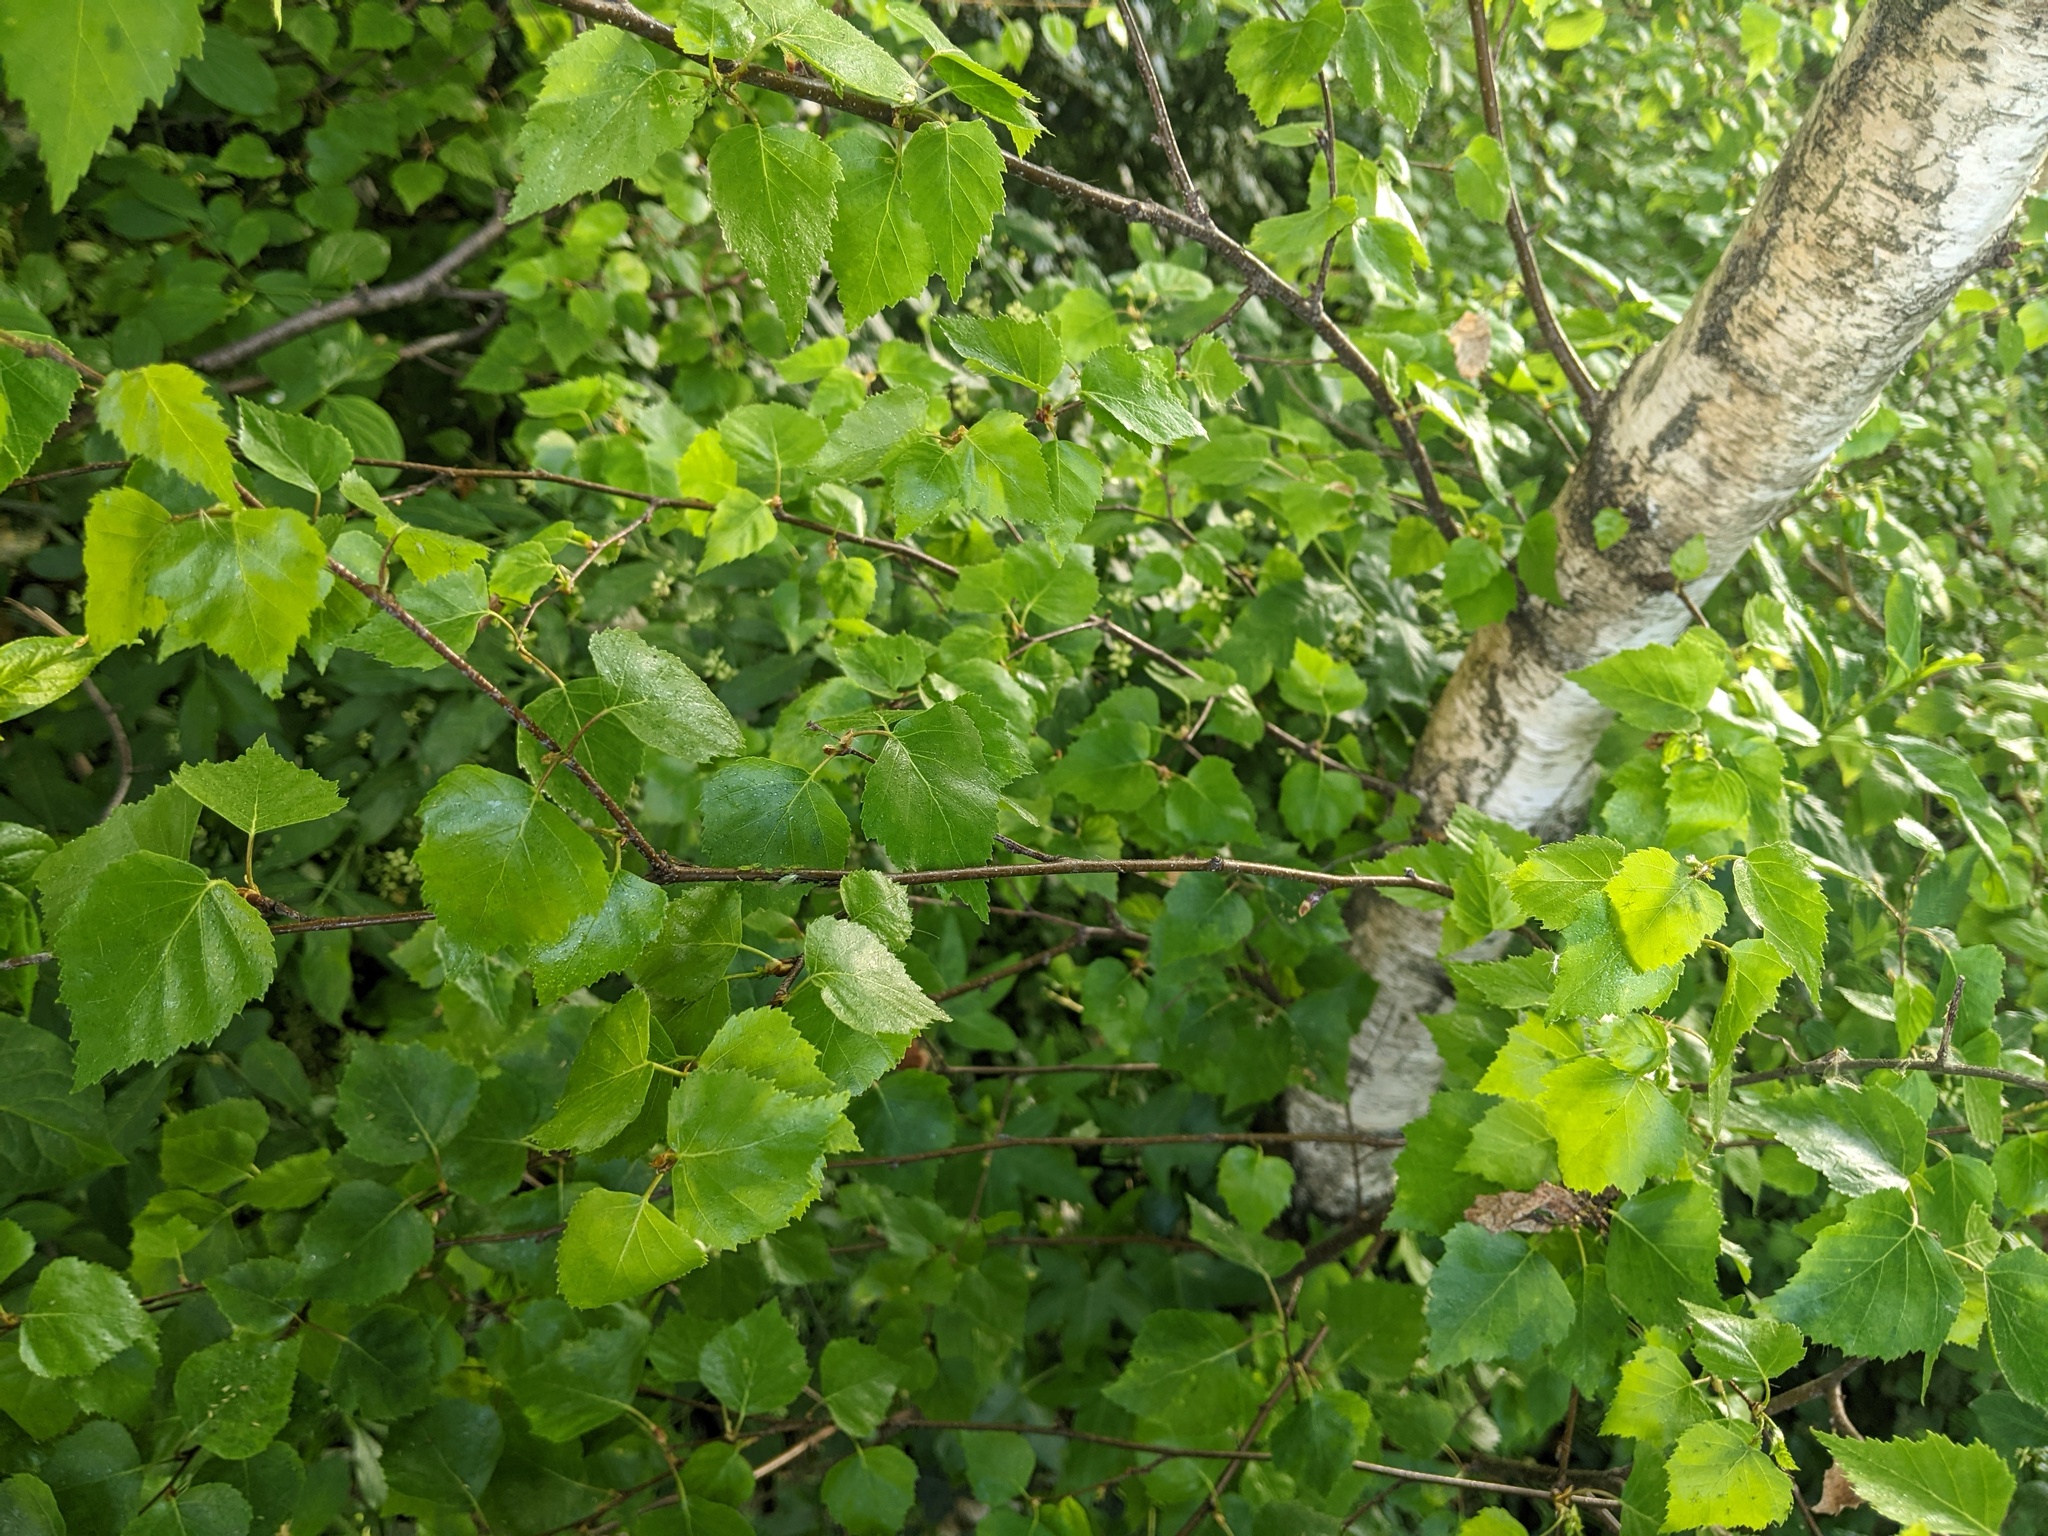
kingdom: Plantae
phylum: Tracheophyta
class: Magnoliopsida
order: Fagales
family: Betulaceae
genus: Betula
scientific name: Betula pendula
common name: Silver birch
